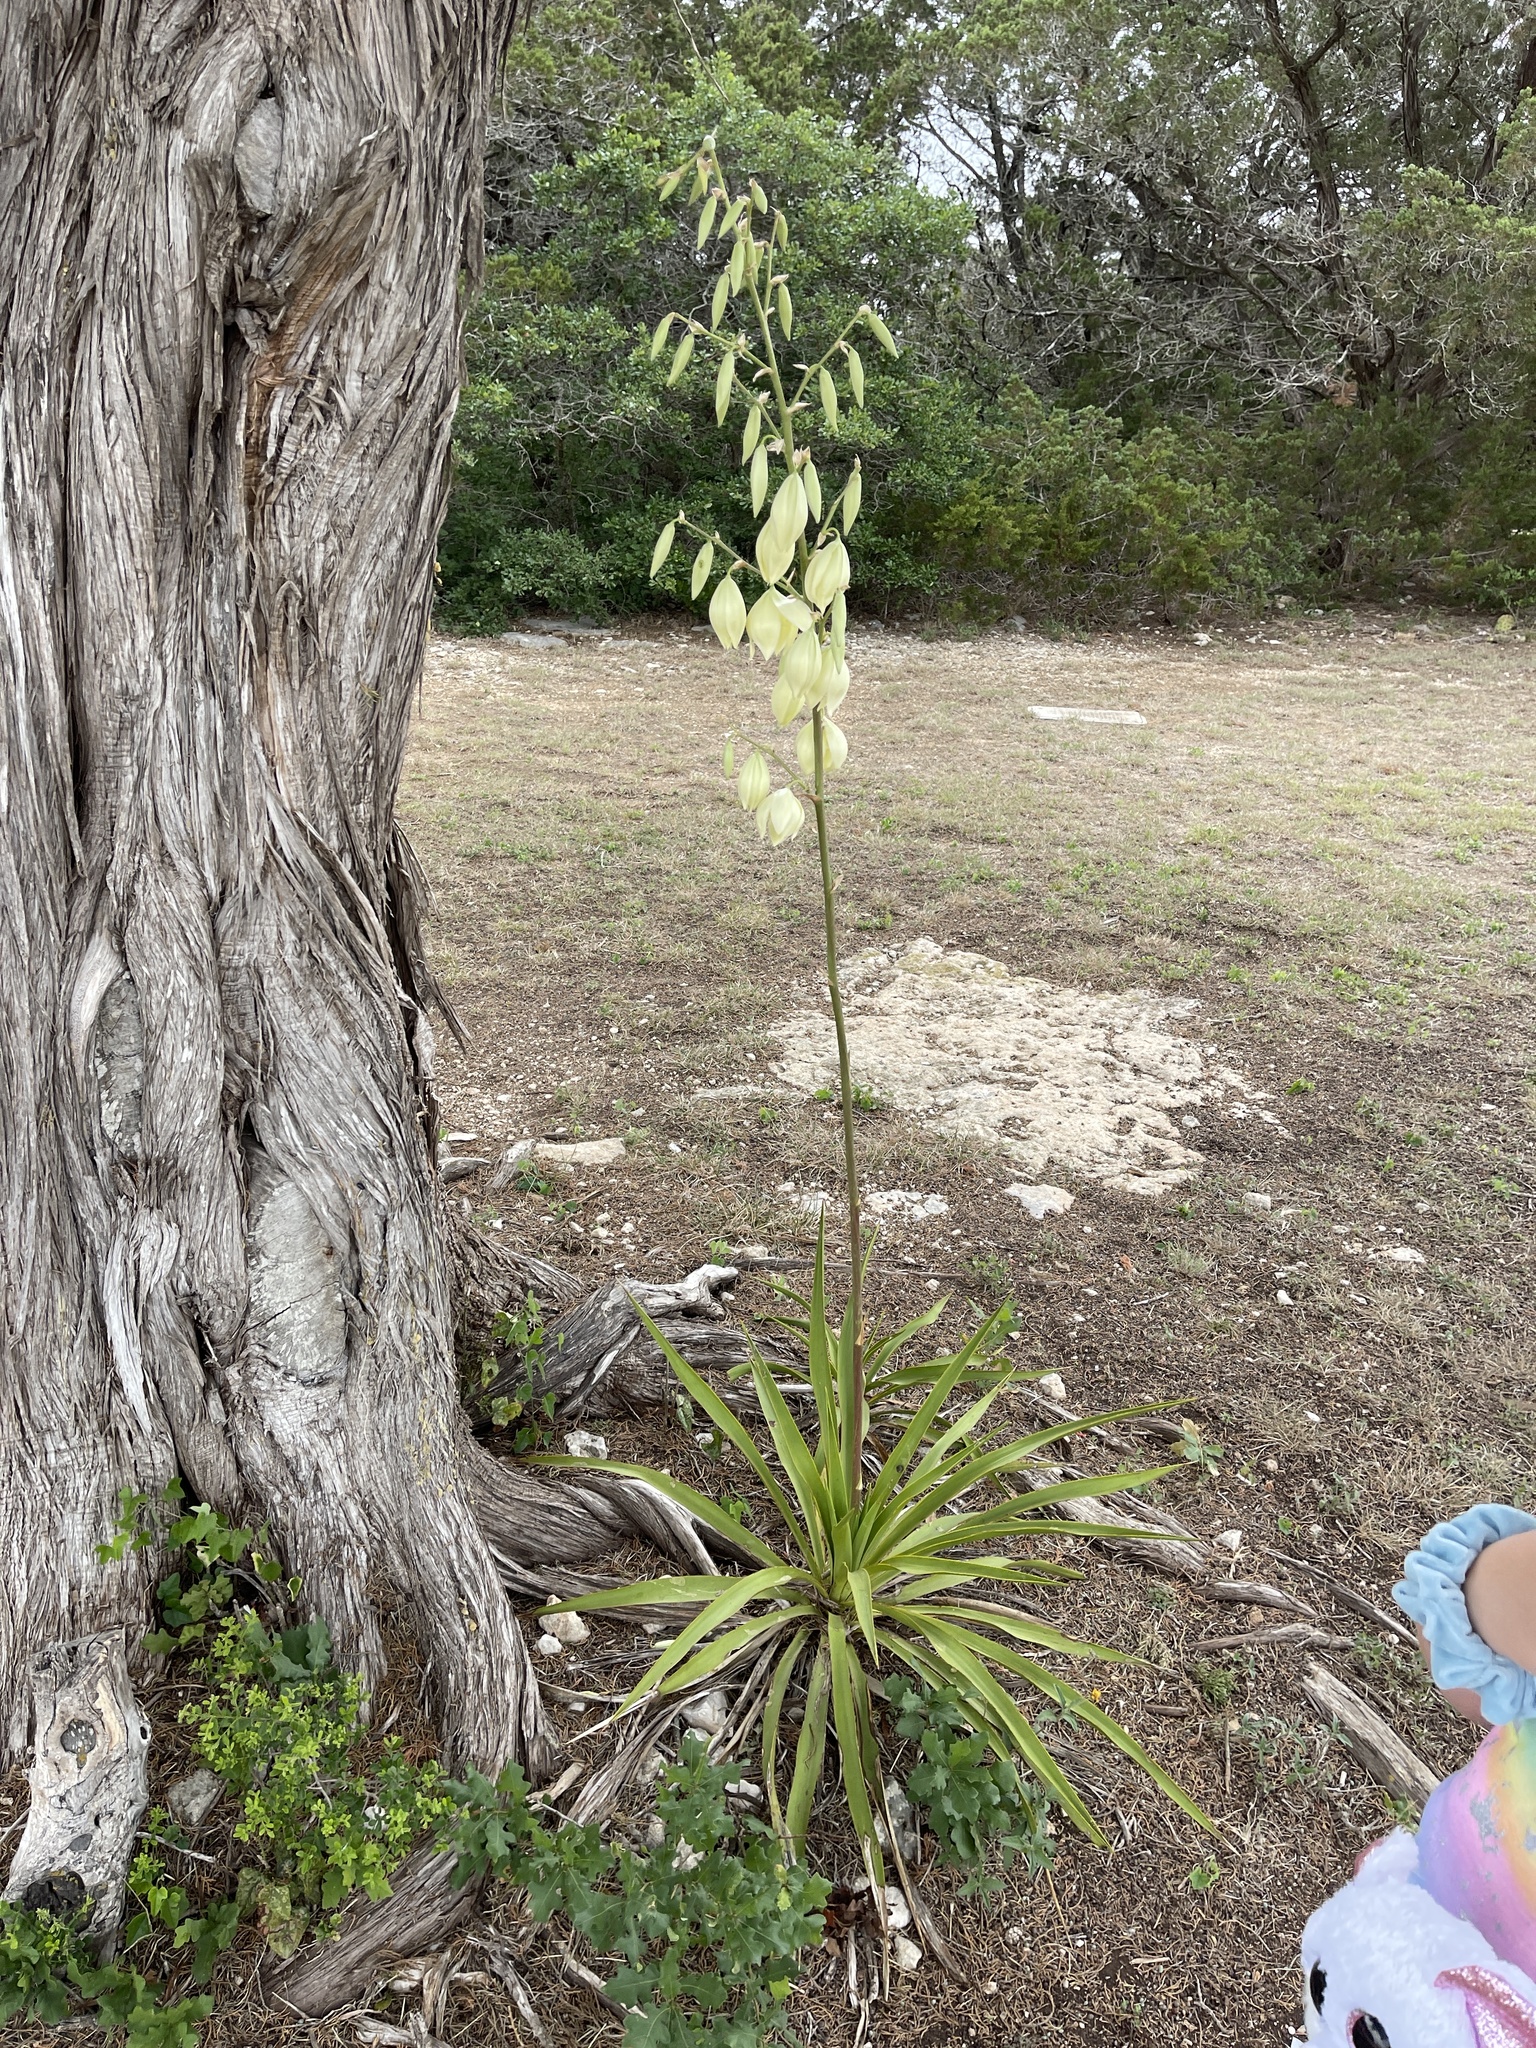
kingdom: Plantae
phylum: Tracheophyta
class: Liliopsida
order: Asparagales
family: Asparagaceae
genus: Yucca
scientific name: Yucca rupicola
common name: Twisted-leaf spanish-dagger
